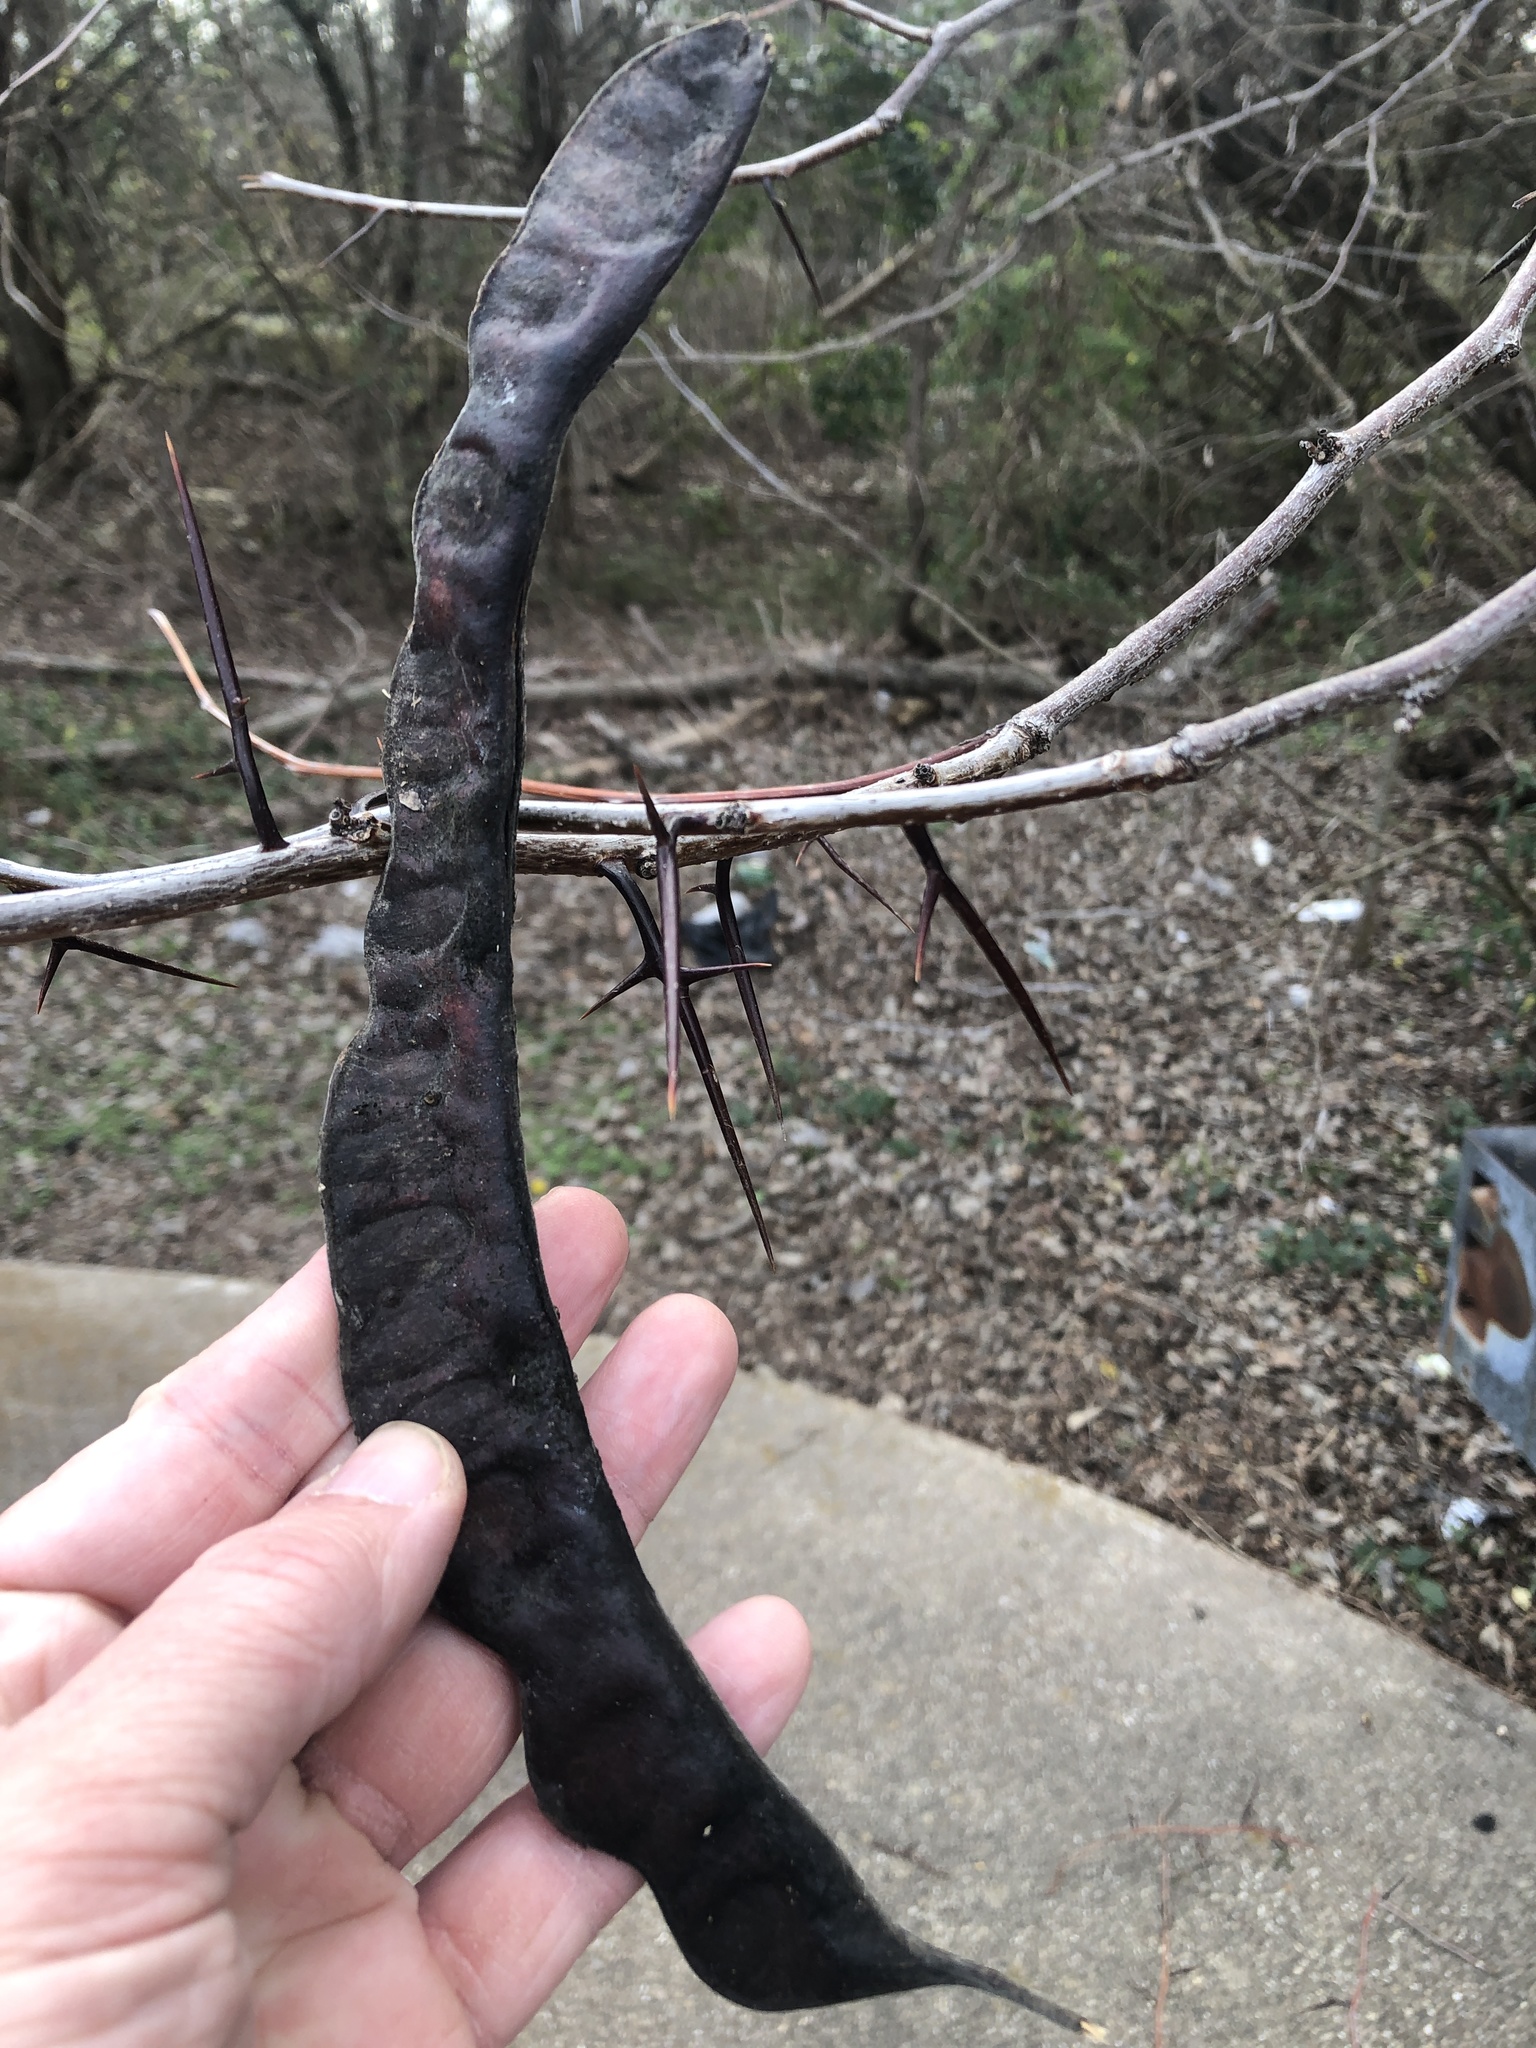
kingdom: Plantae
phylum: Tracheophyta
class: Magnoliopsida
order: Fabales
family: Fabaceae
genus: Gleditsia
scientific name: Gleditsia triacanthos
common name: Common honeylocust
